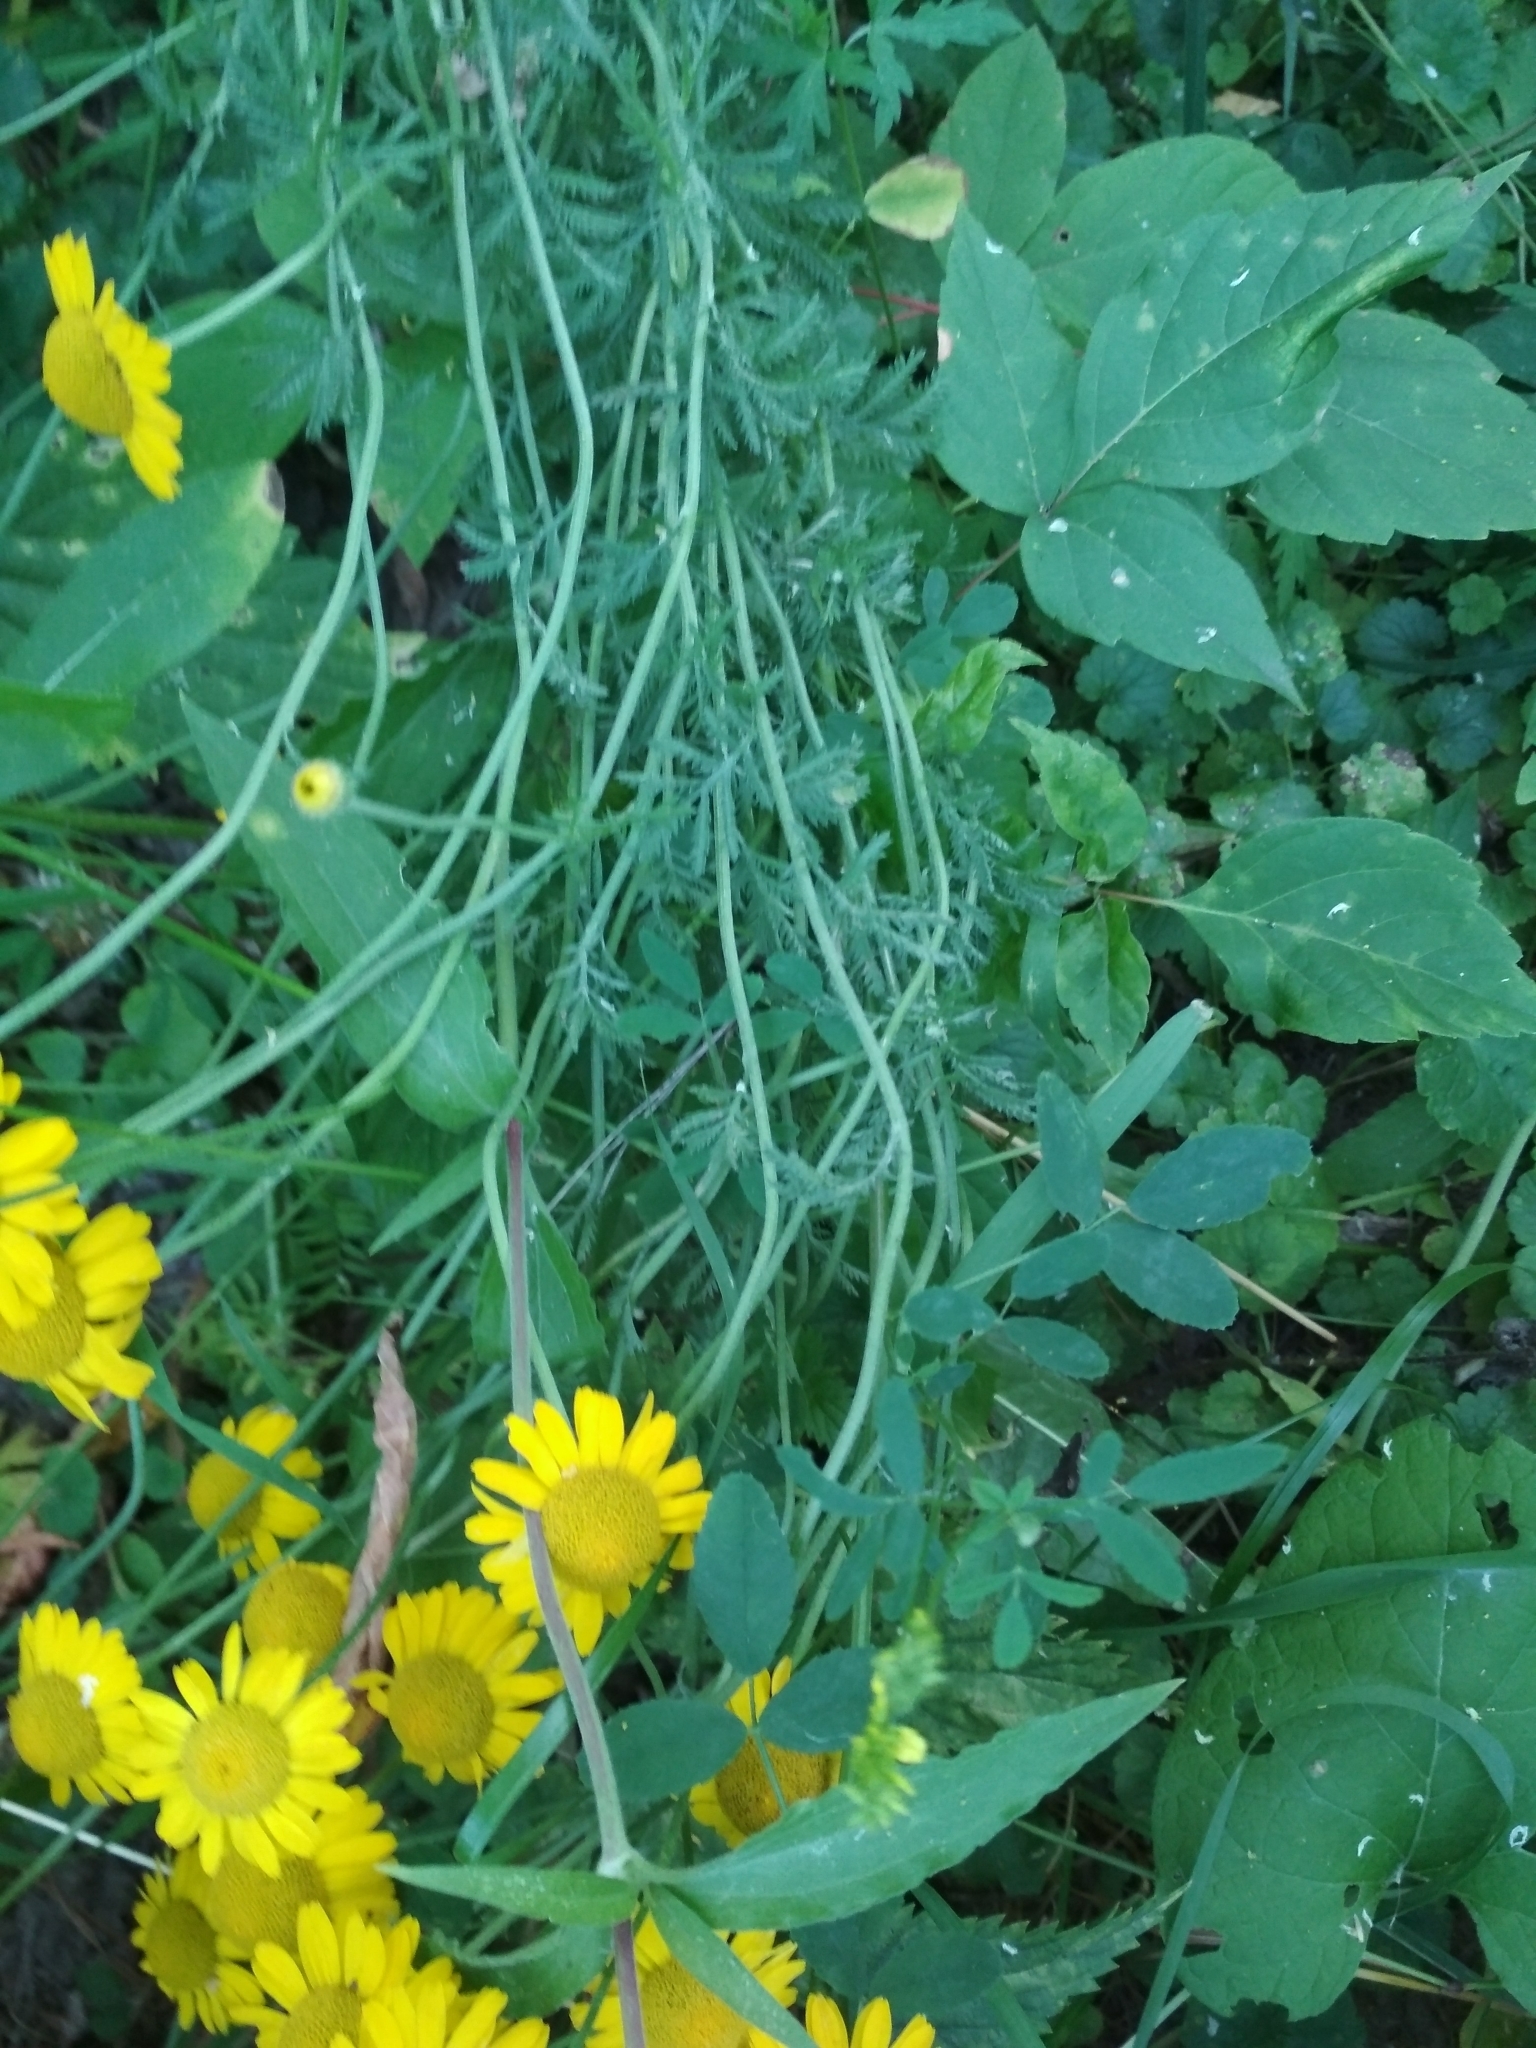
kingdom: Plantae
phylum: Tracheophyta
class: Magnoliopsida
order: Asterales
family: Asteraceae
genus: Cota
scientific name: Cota tinctoria
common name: Golden chamomile
